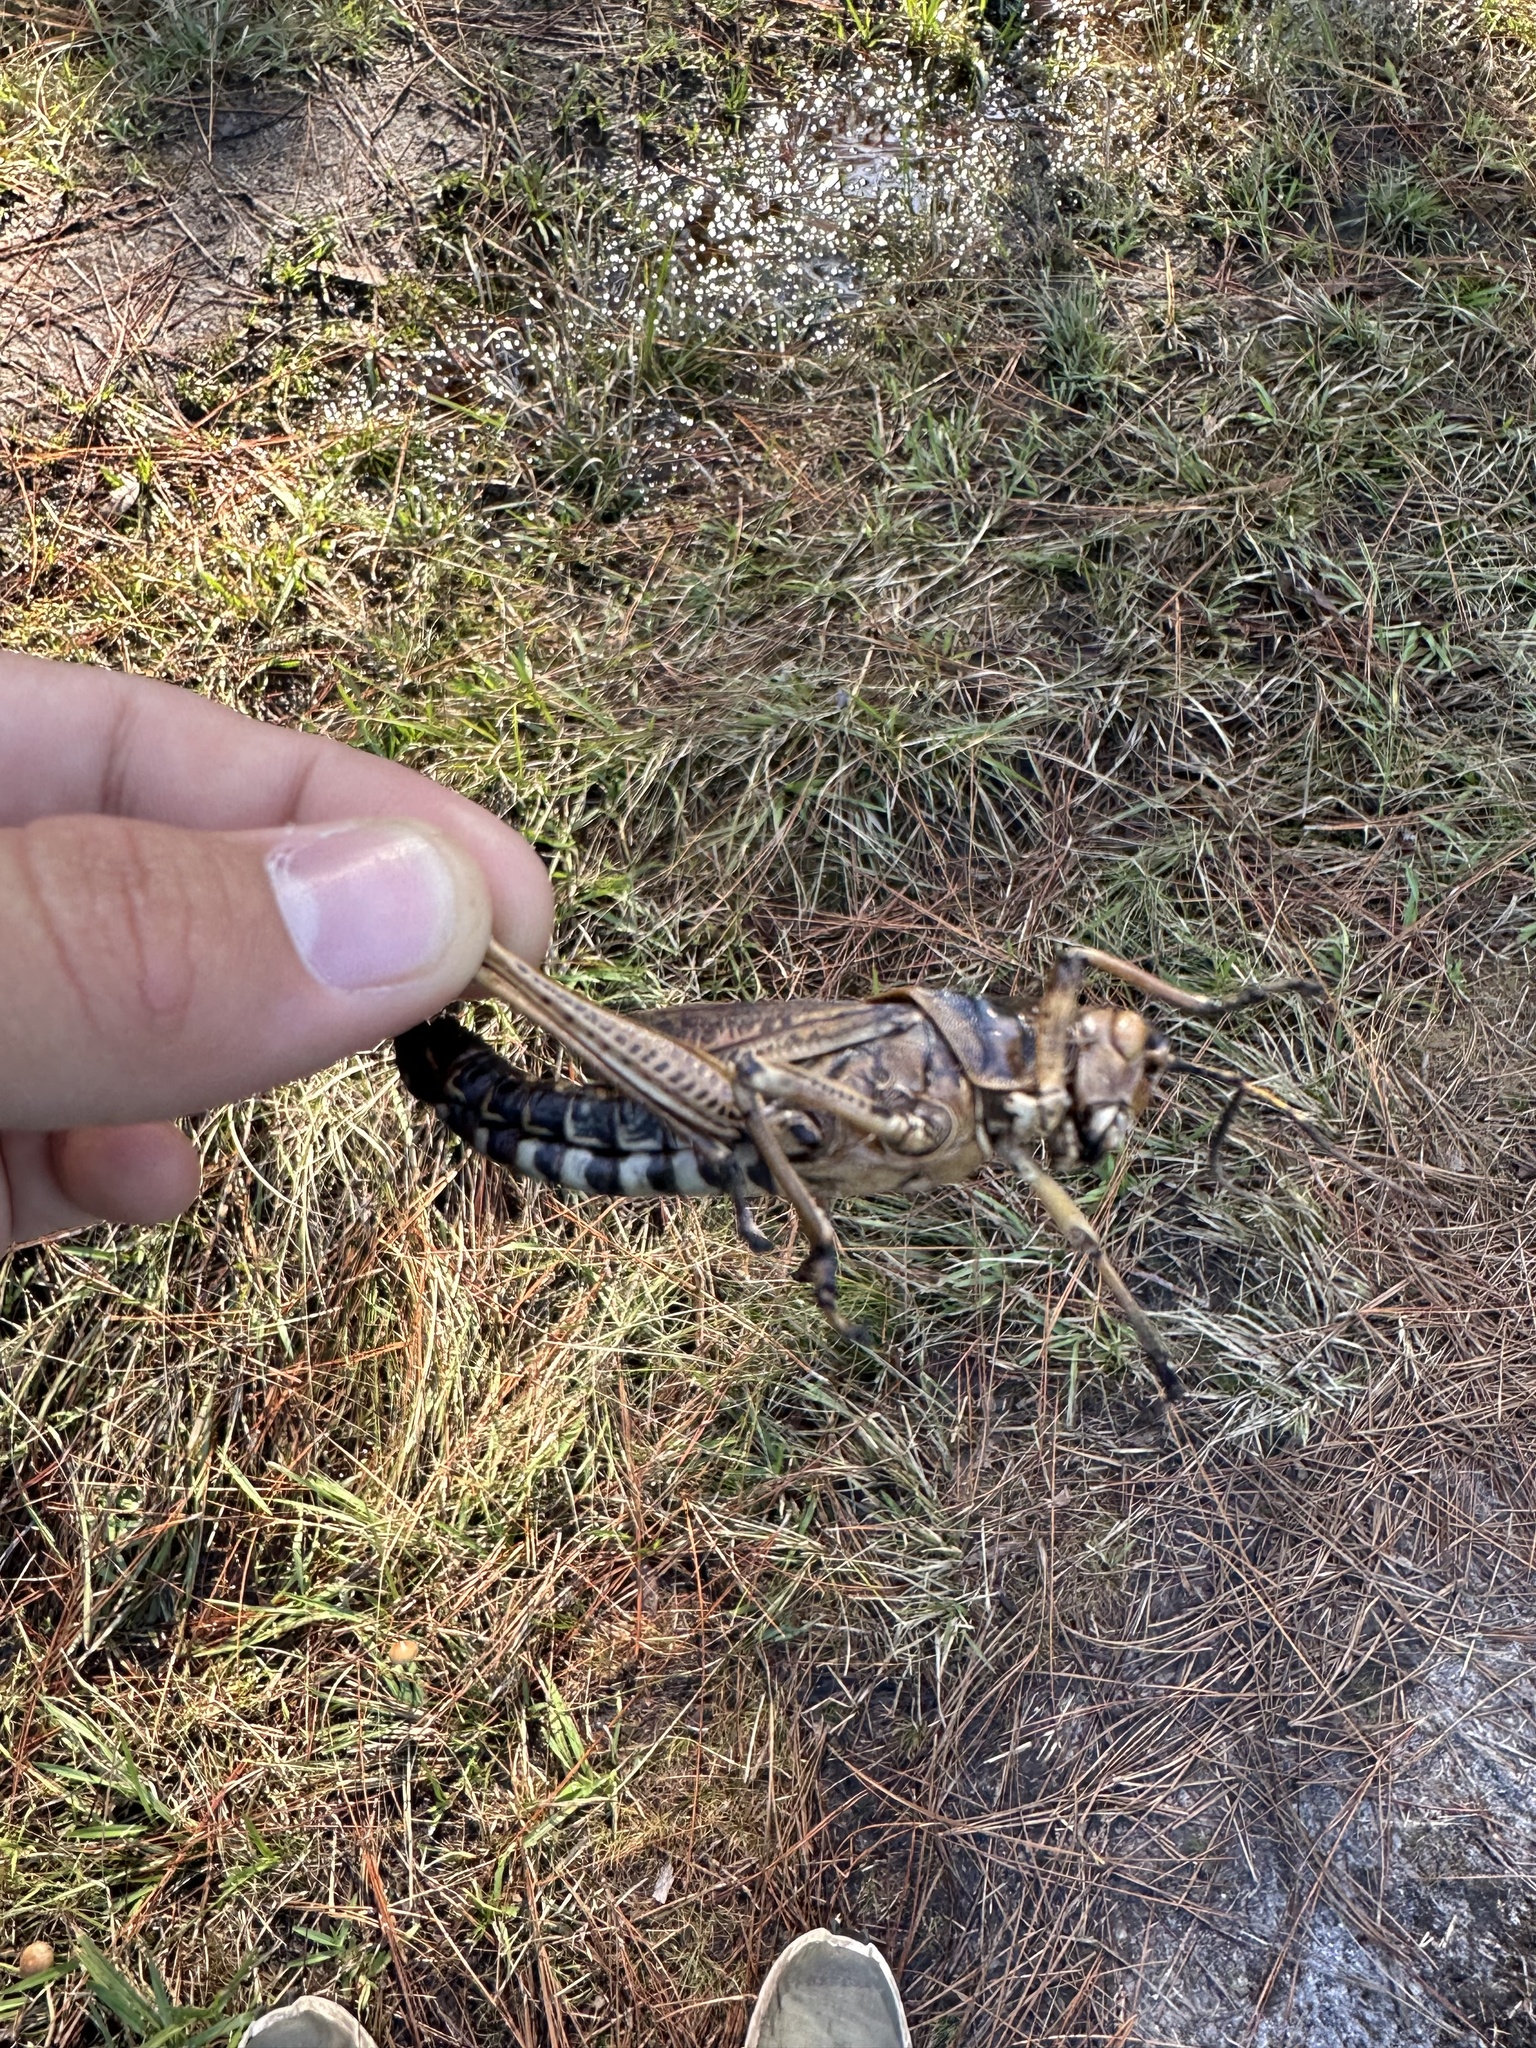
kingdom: Animalia
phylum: Arthropoda
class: Insecta
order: Orthoptera
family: Romaleidae
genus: Romalea
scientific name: Romalea microptera
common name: Eastern lubber grasshopper
